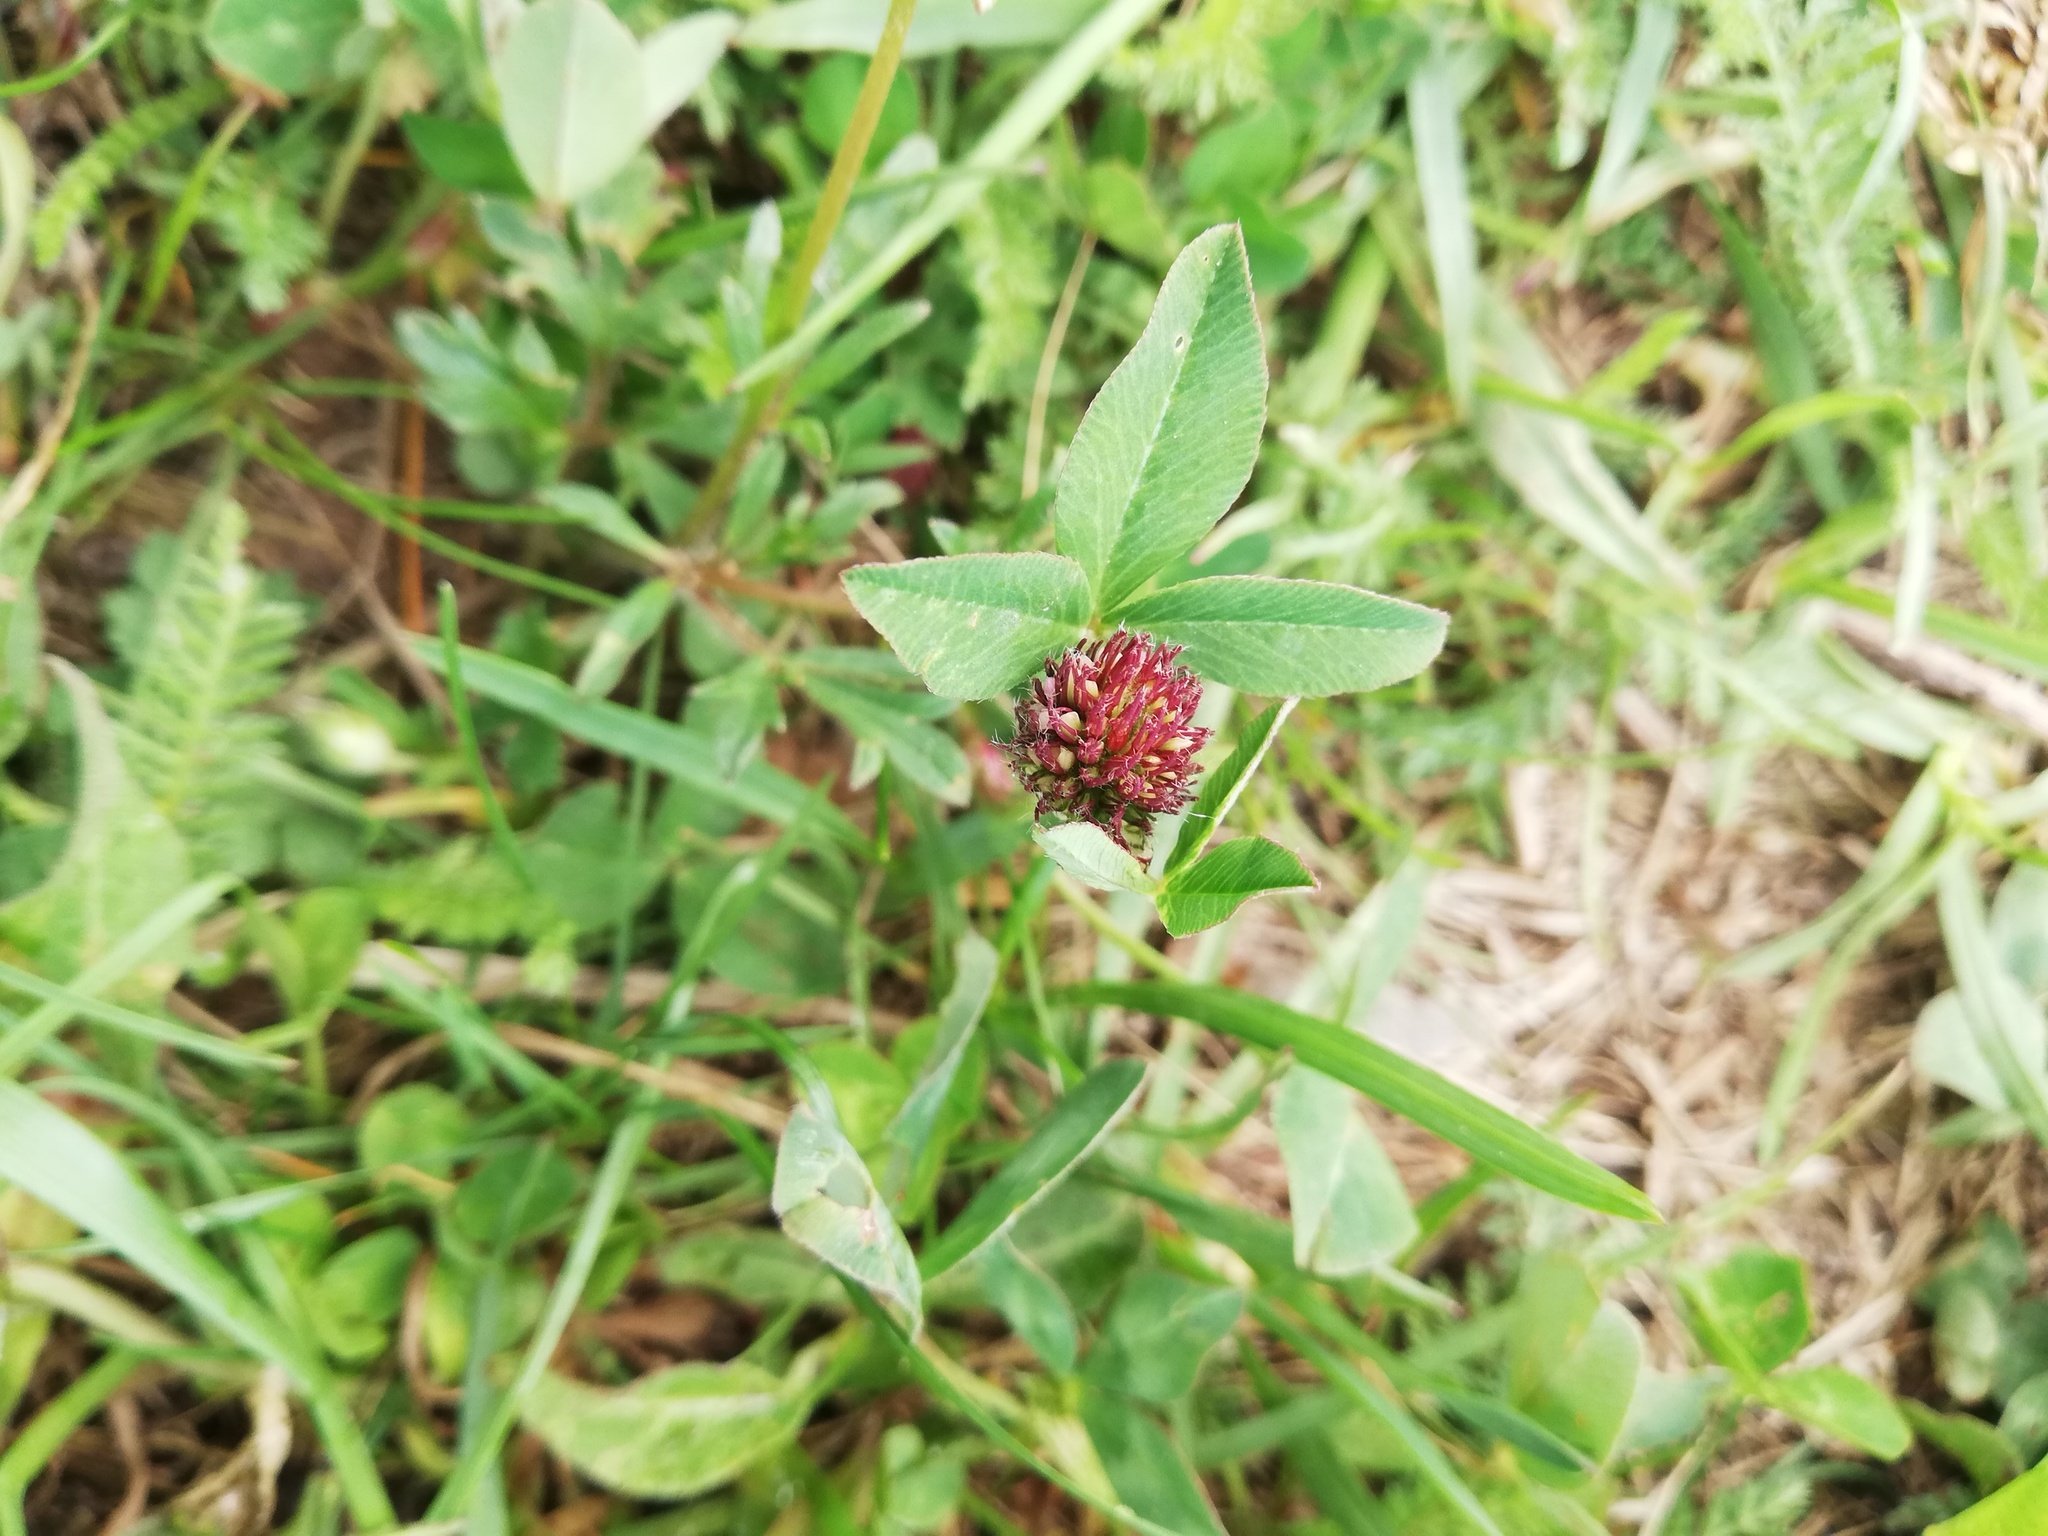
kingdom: Plantae
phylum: Tracheophyta
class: Magnoliopsida
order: Fabales
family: Fabaceae
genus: Trifolium
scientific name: Trifolium pratense
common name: Red clover
